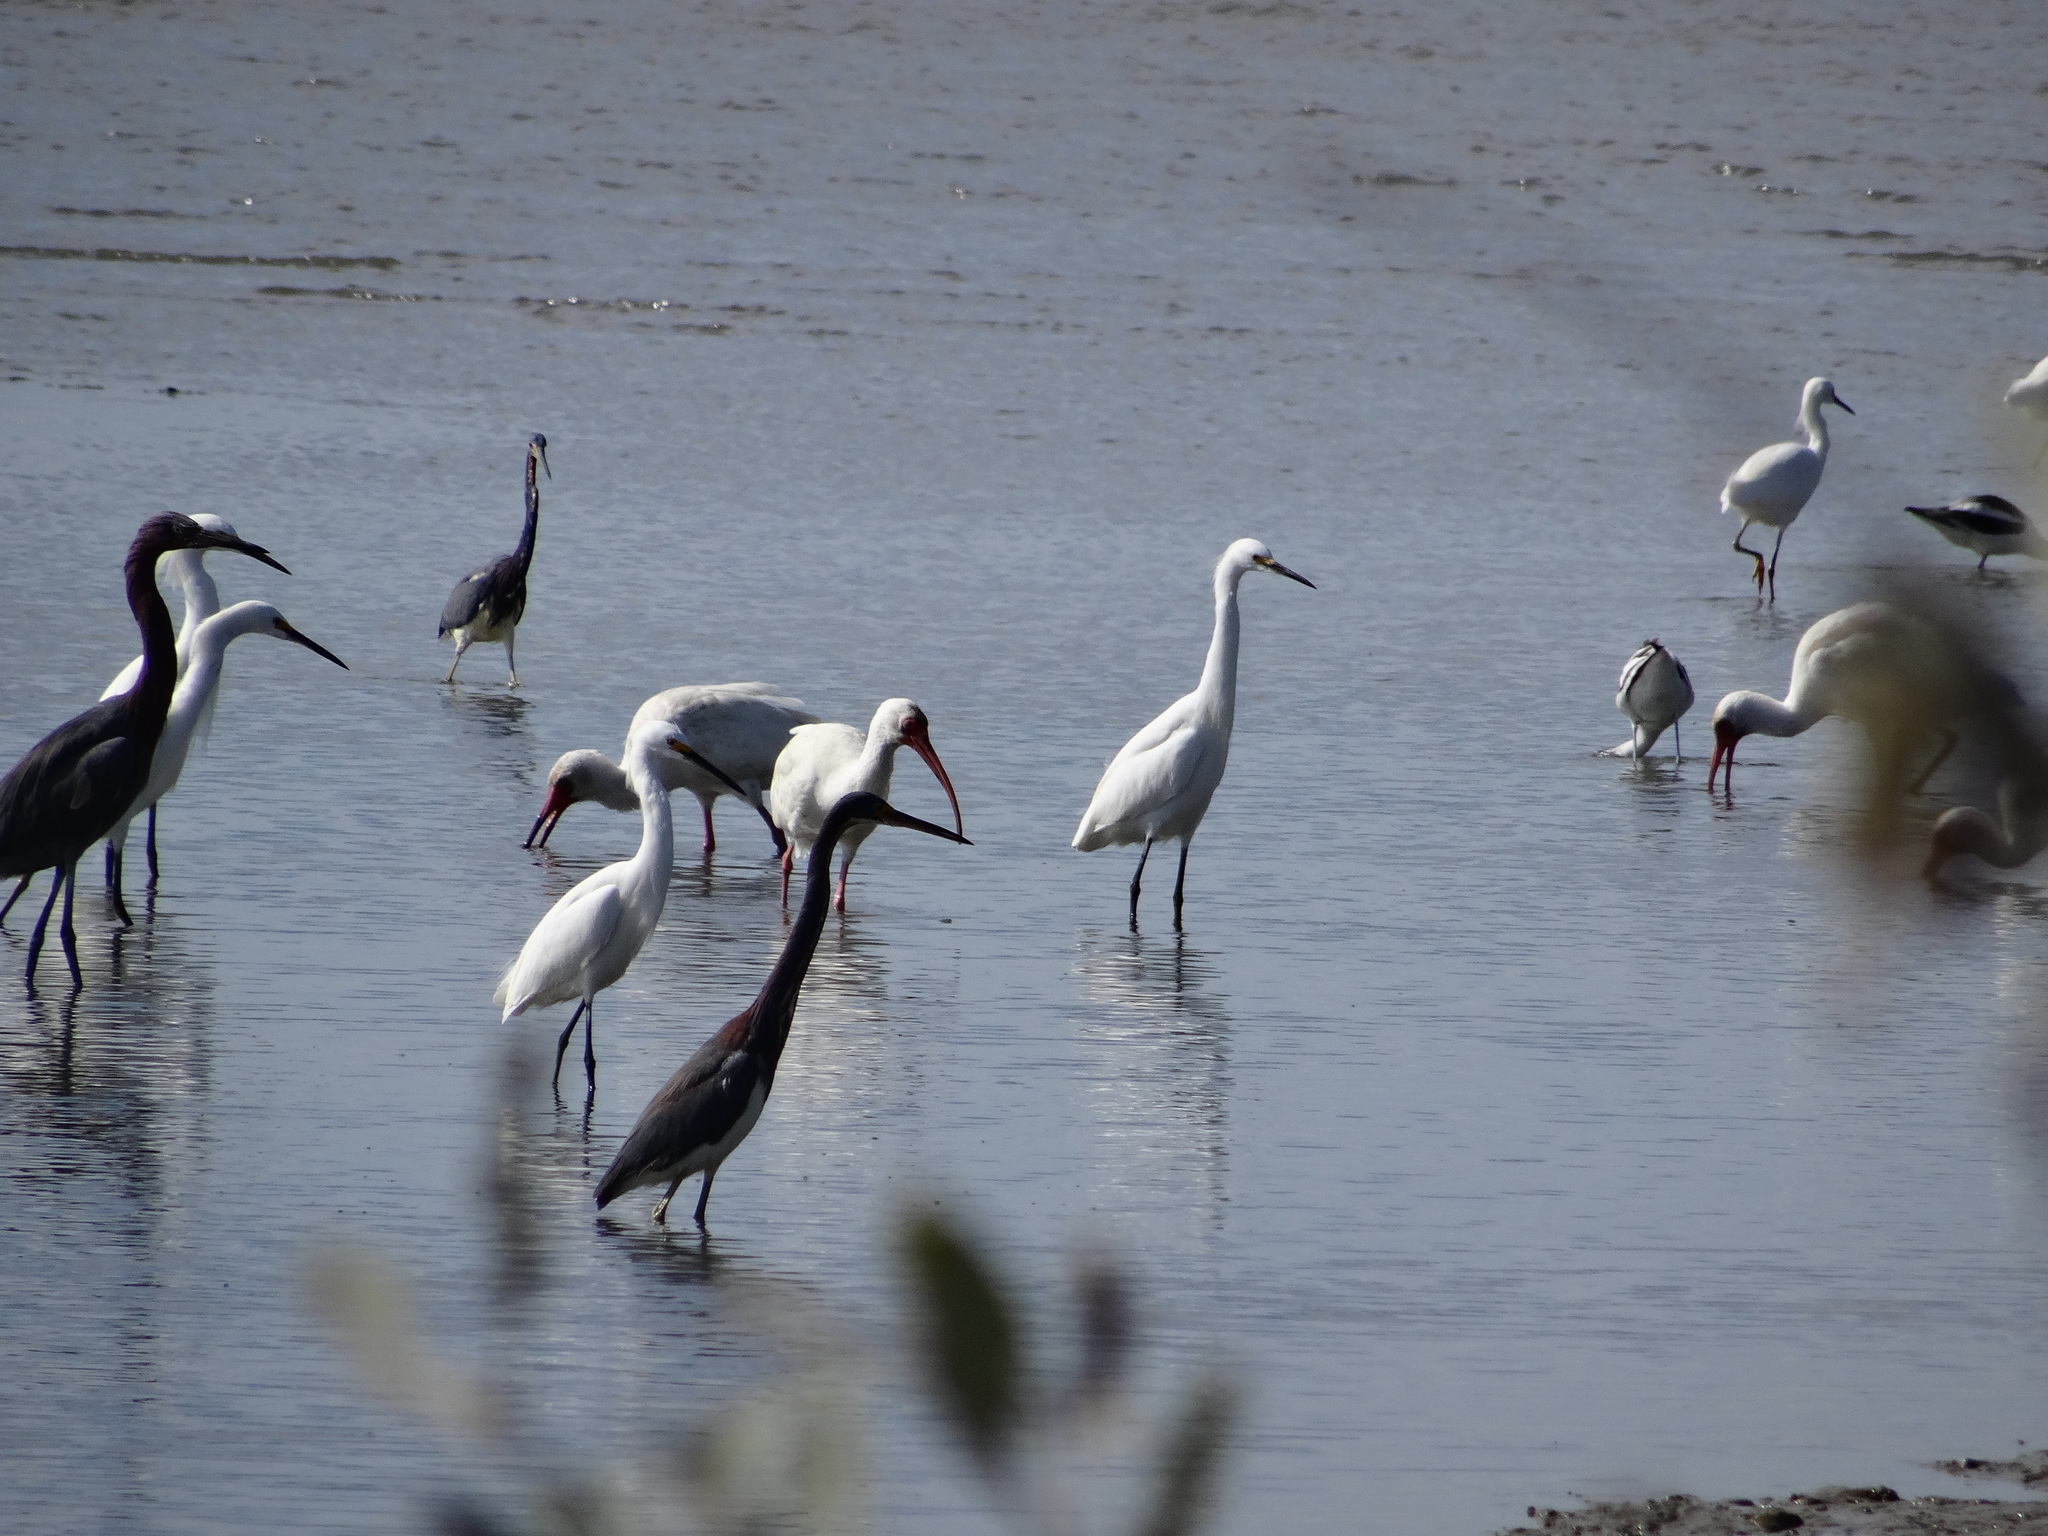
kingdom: Animalia
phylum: Chordata
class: Aves
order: Pelecaniformes
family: Ardeidae
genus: Egretta
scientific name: Egretta thula
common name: Snowy egret
